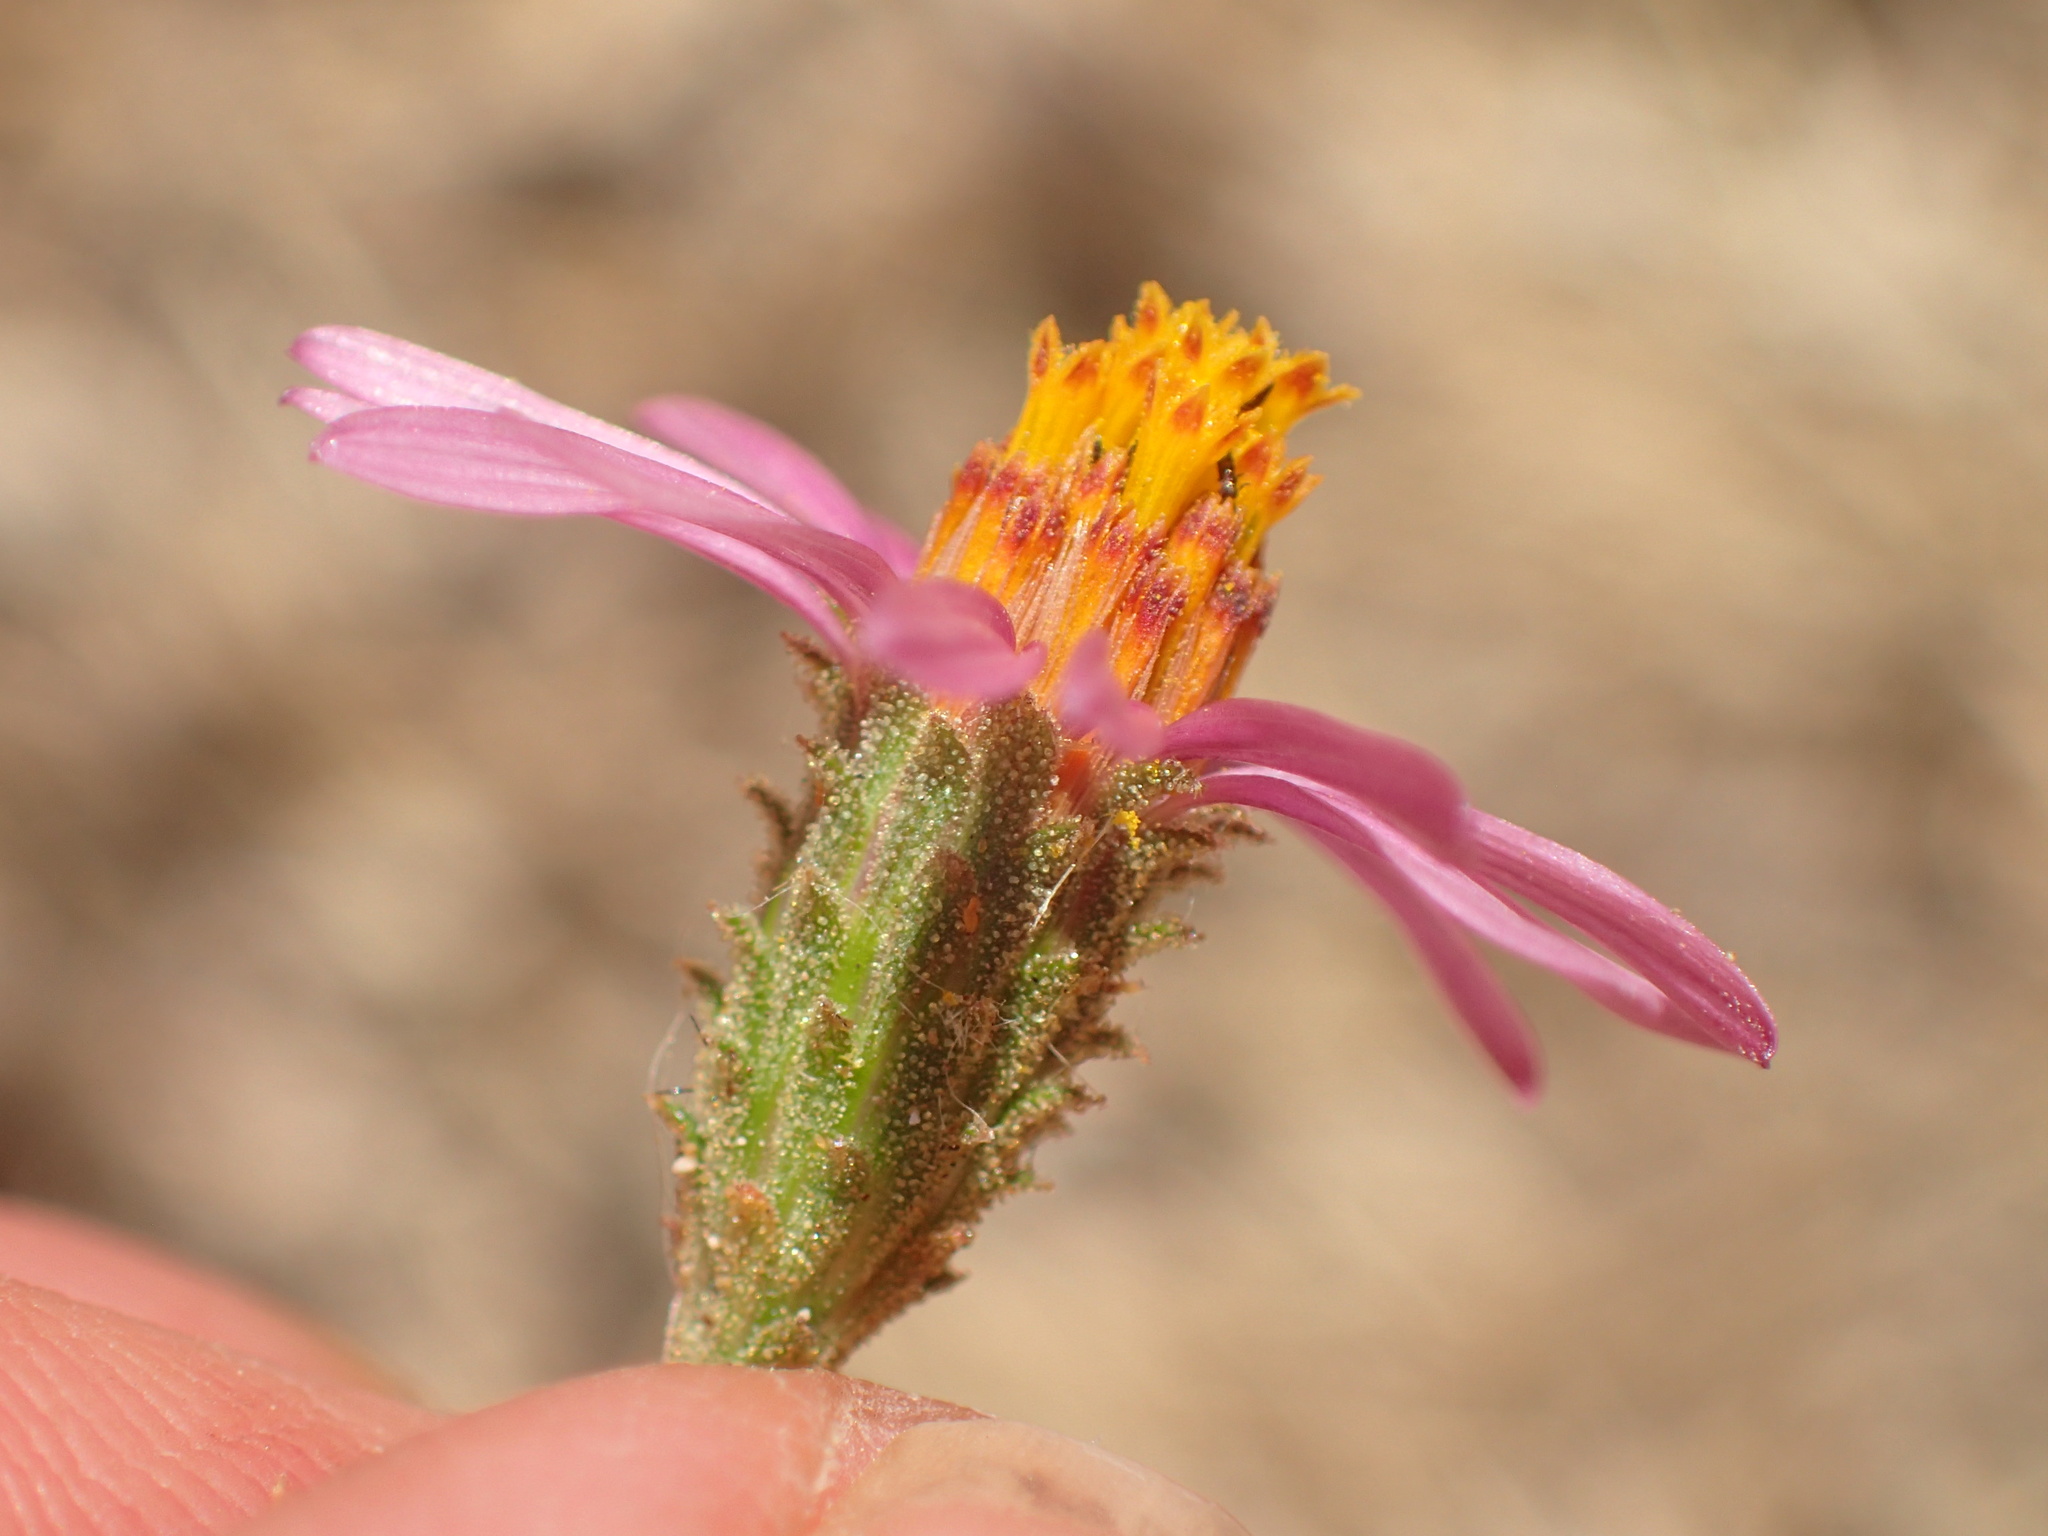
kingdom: Plantae
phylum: Tracheophyta
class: Magnoliopsida
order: Asterales
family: Asteraceae
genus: Corethrogyne
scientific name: Corethrogyne filaginifolia
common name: Sand-aster
